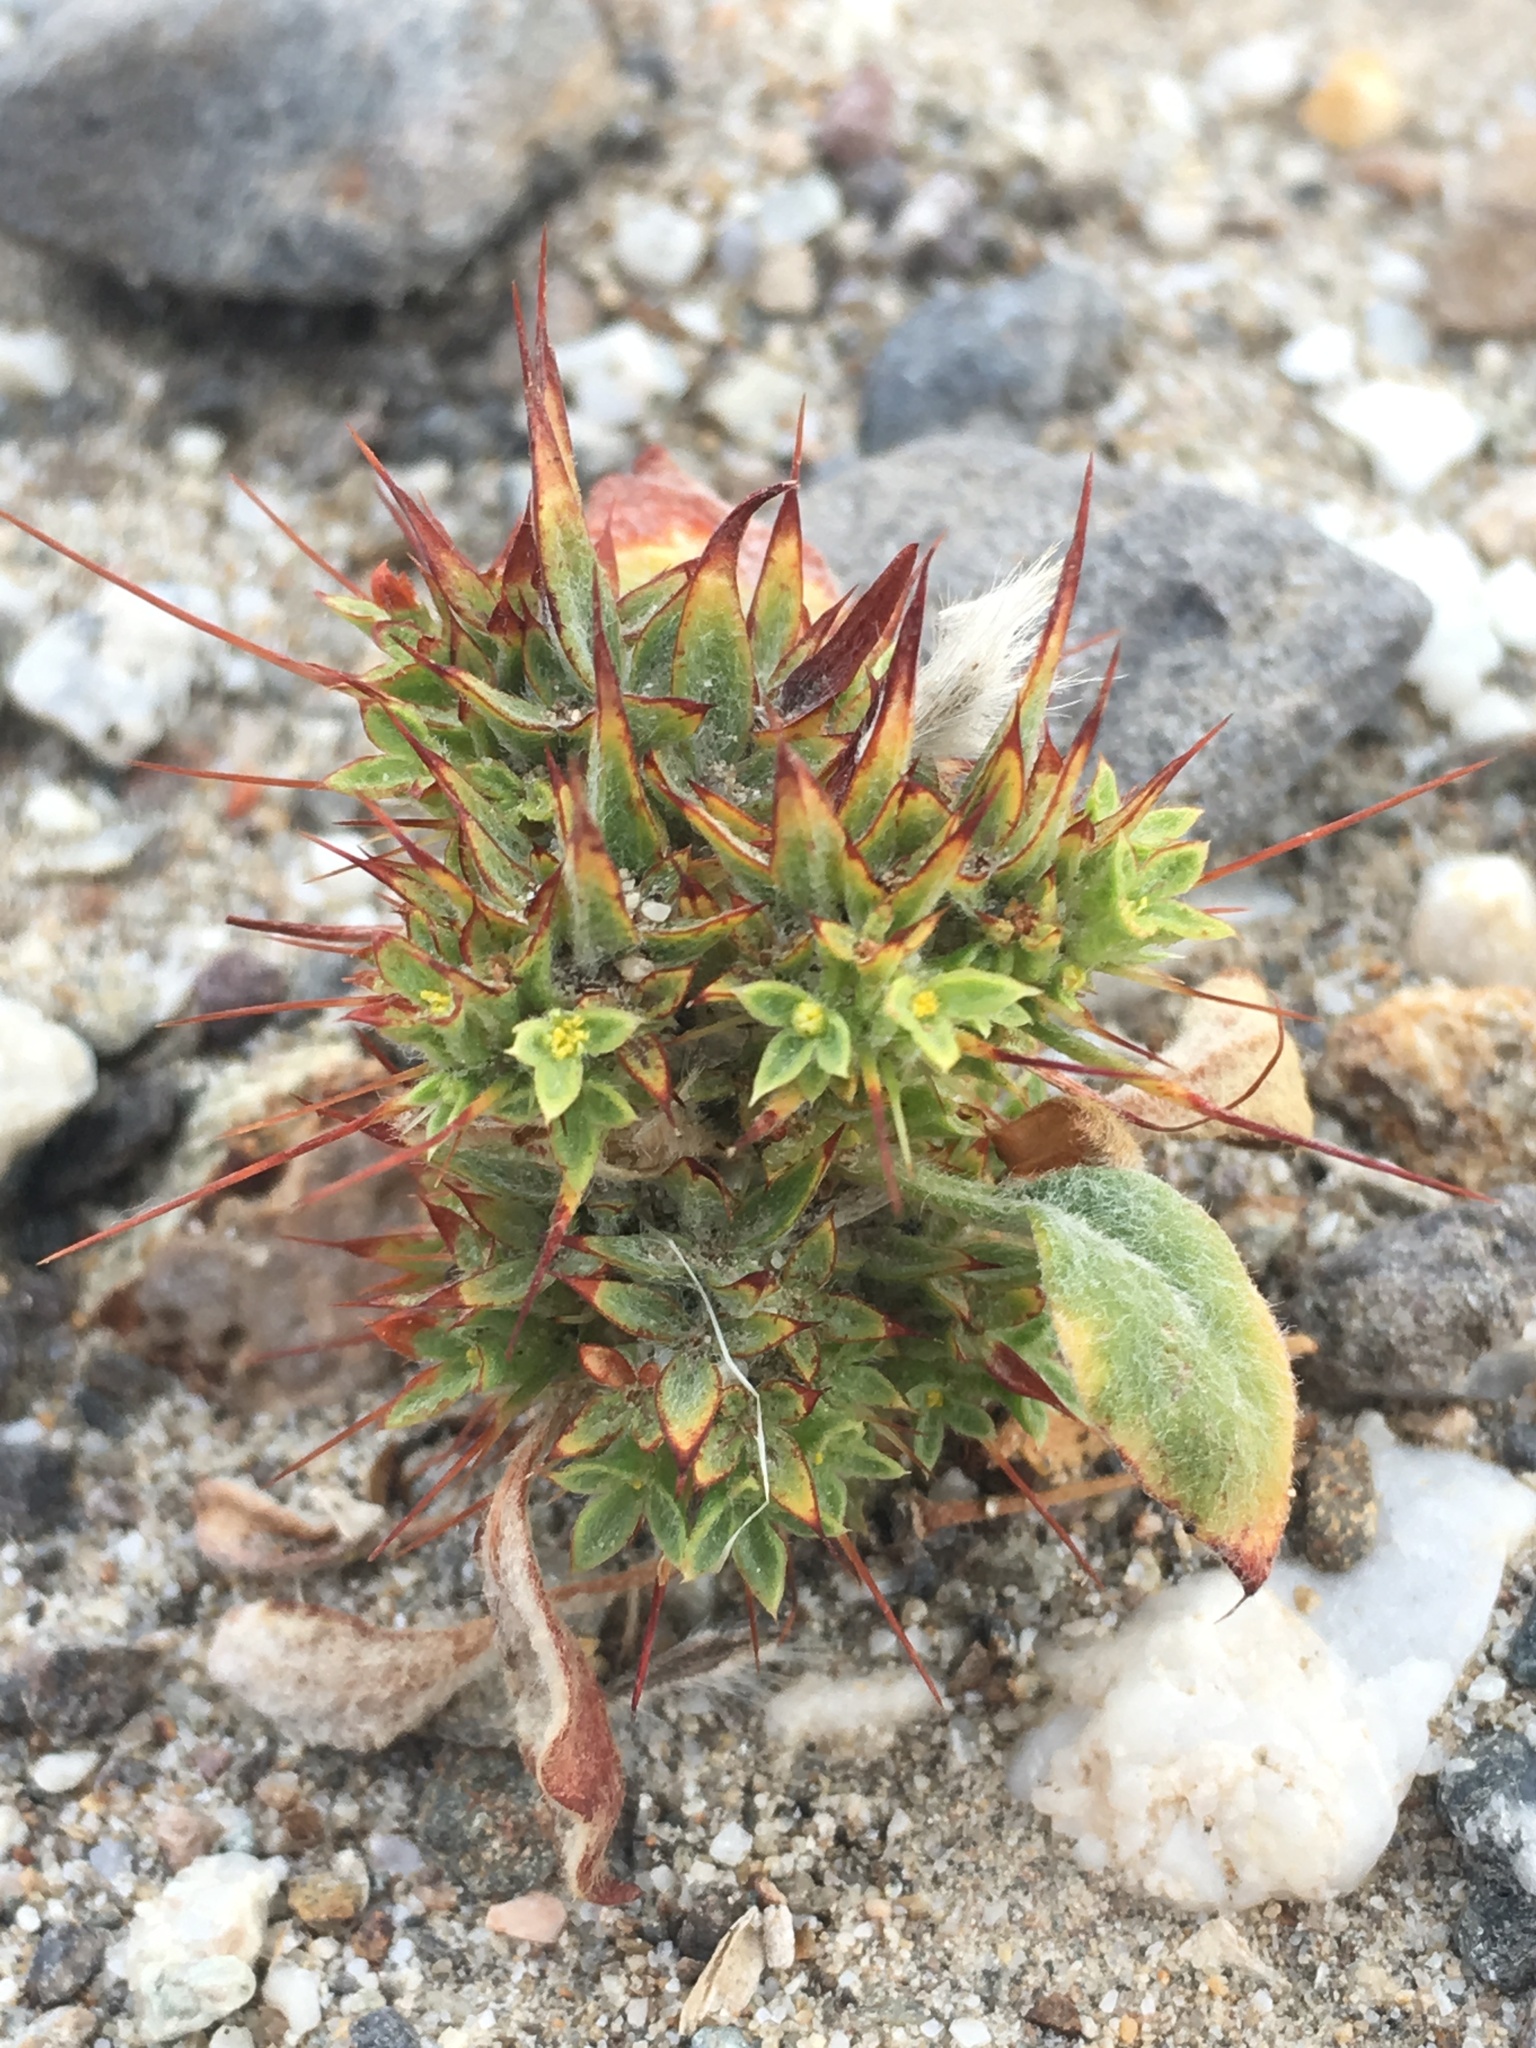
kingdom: Plantae
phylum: Tracheophyta
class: Magnoliopsida
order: Caryophyllales
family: Polygonaceae
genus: Chorizanthe
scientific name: Chorizanthe rigida
